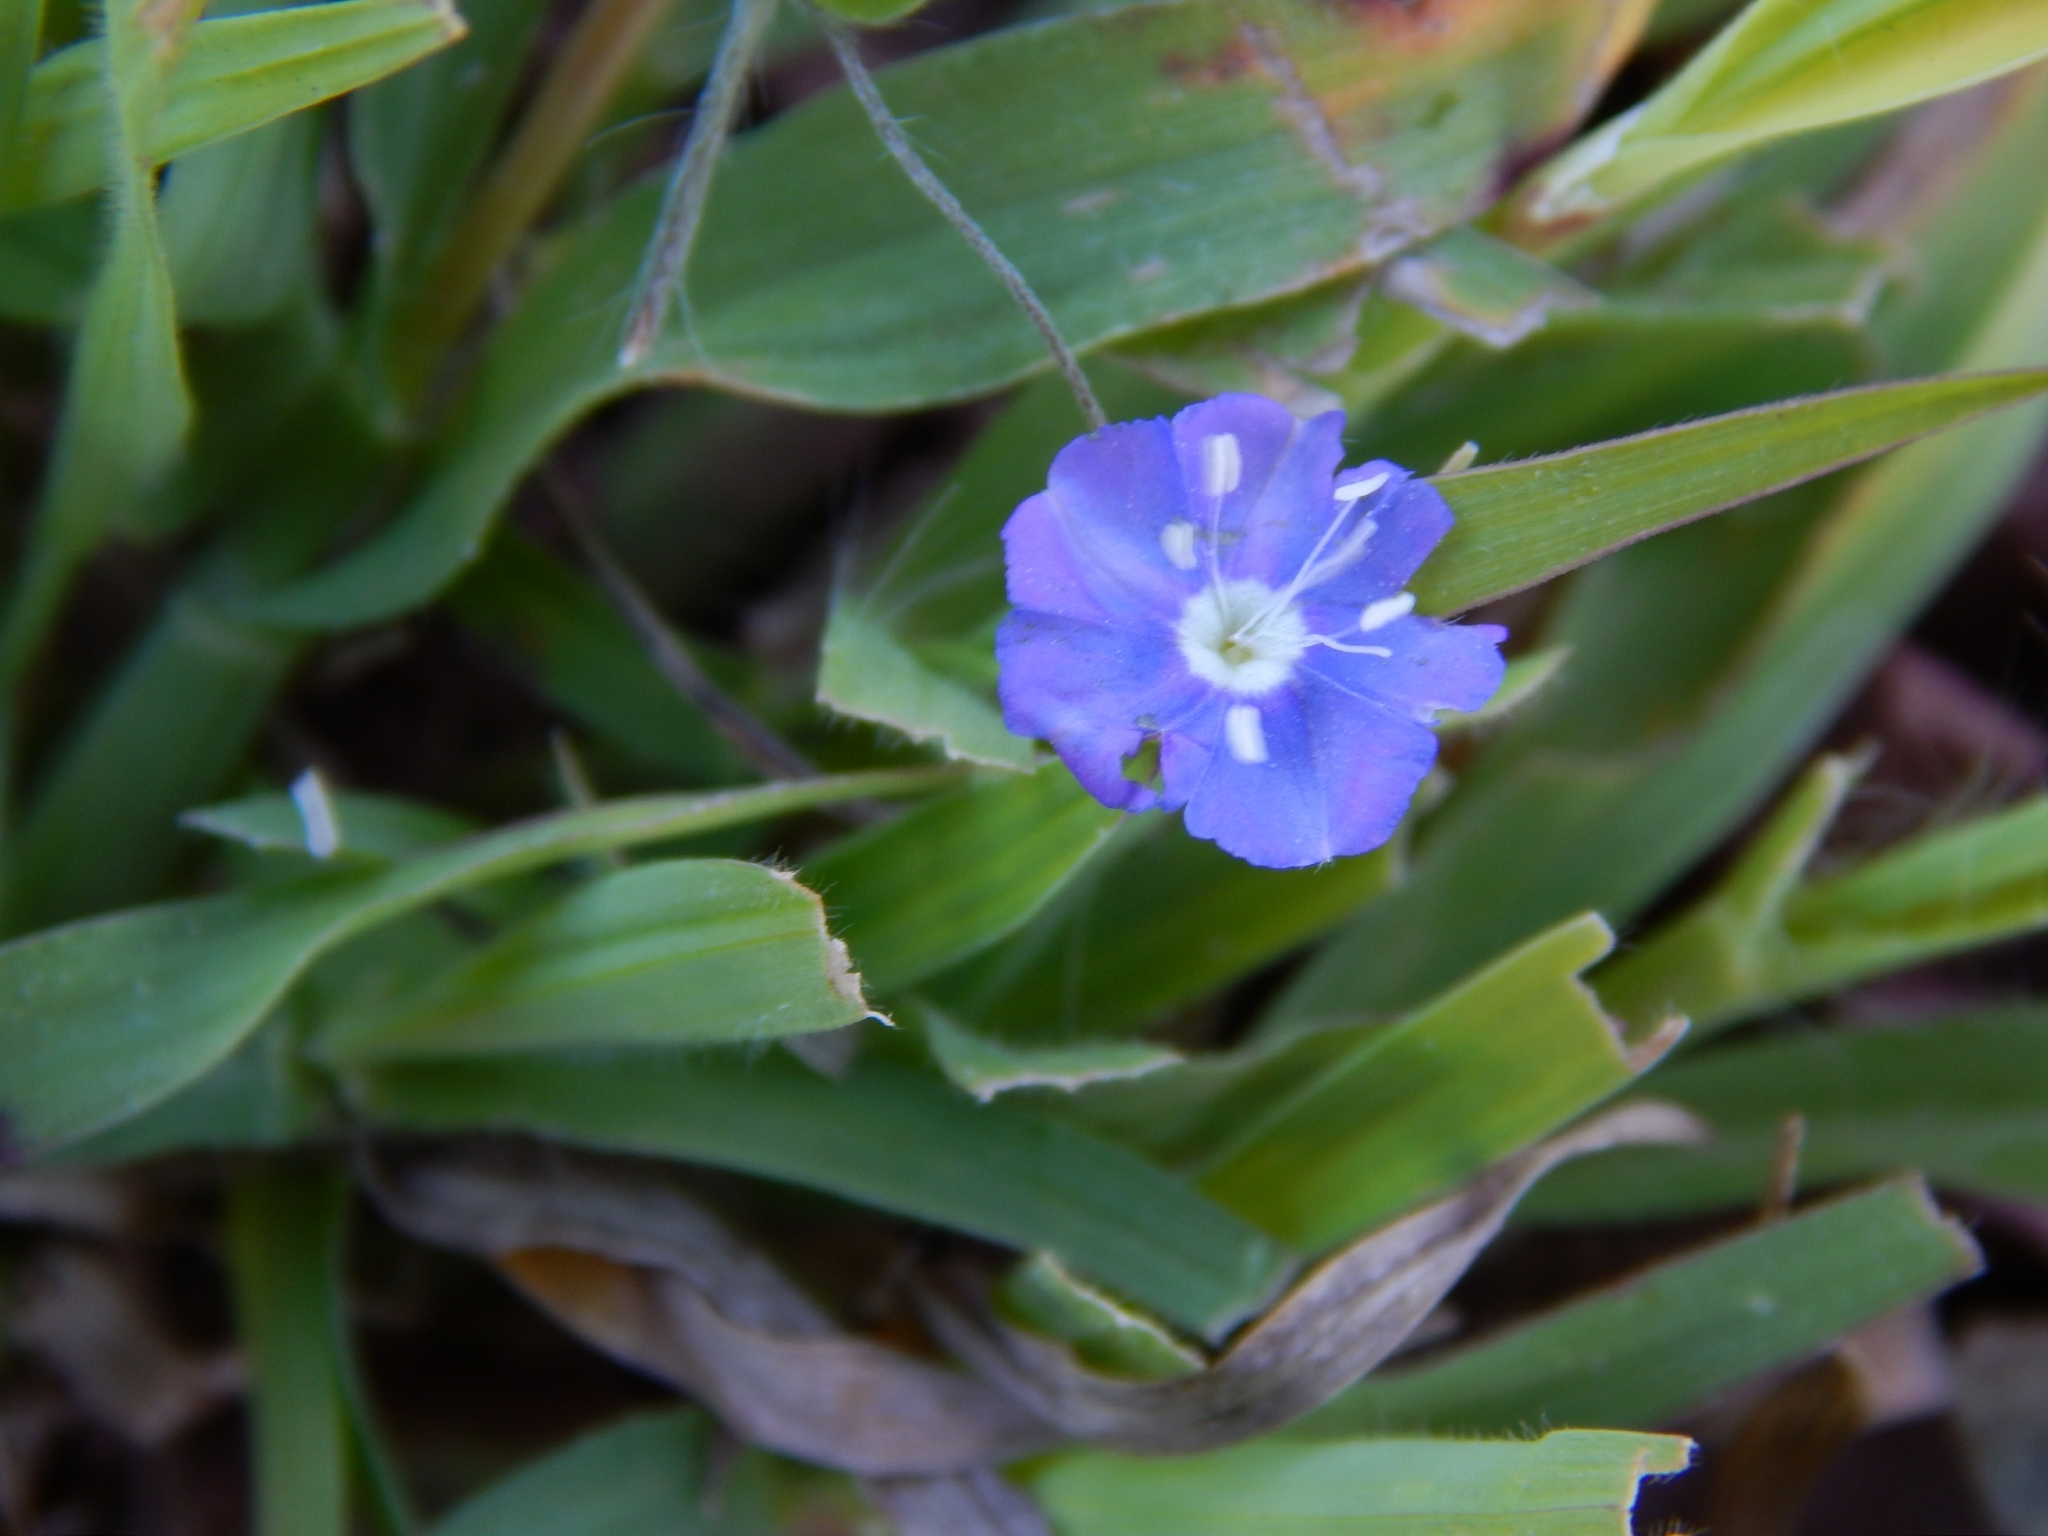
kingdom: Plantae
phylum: Tracheophyta
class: Magnoliopsida
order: Solanales
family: Convolvulaceae
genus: Evolvulus
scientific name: Evolvulus alsinoides
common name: Slender dwarf morning-glory
